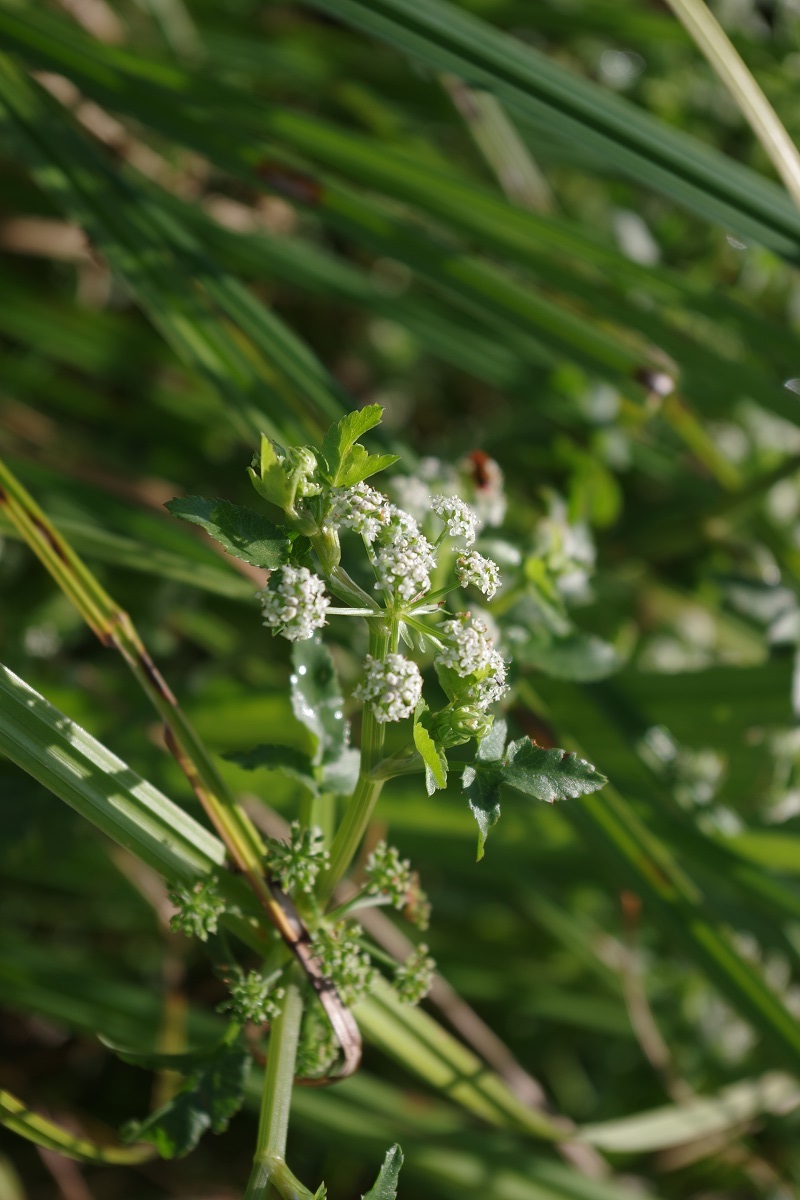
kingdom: Plantae
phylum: Tracheophyta
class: Magnoliopsida
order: Apiales
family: Apiaceae
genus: Helosciadium
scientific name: Helosciadium nodiflorum
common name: Fool's-watercress
